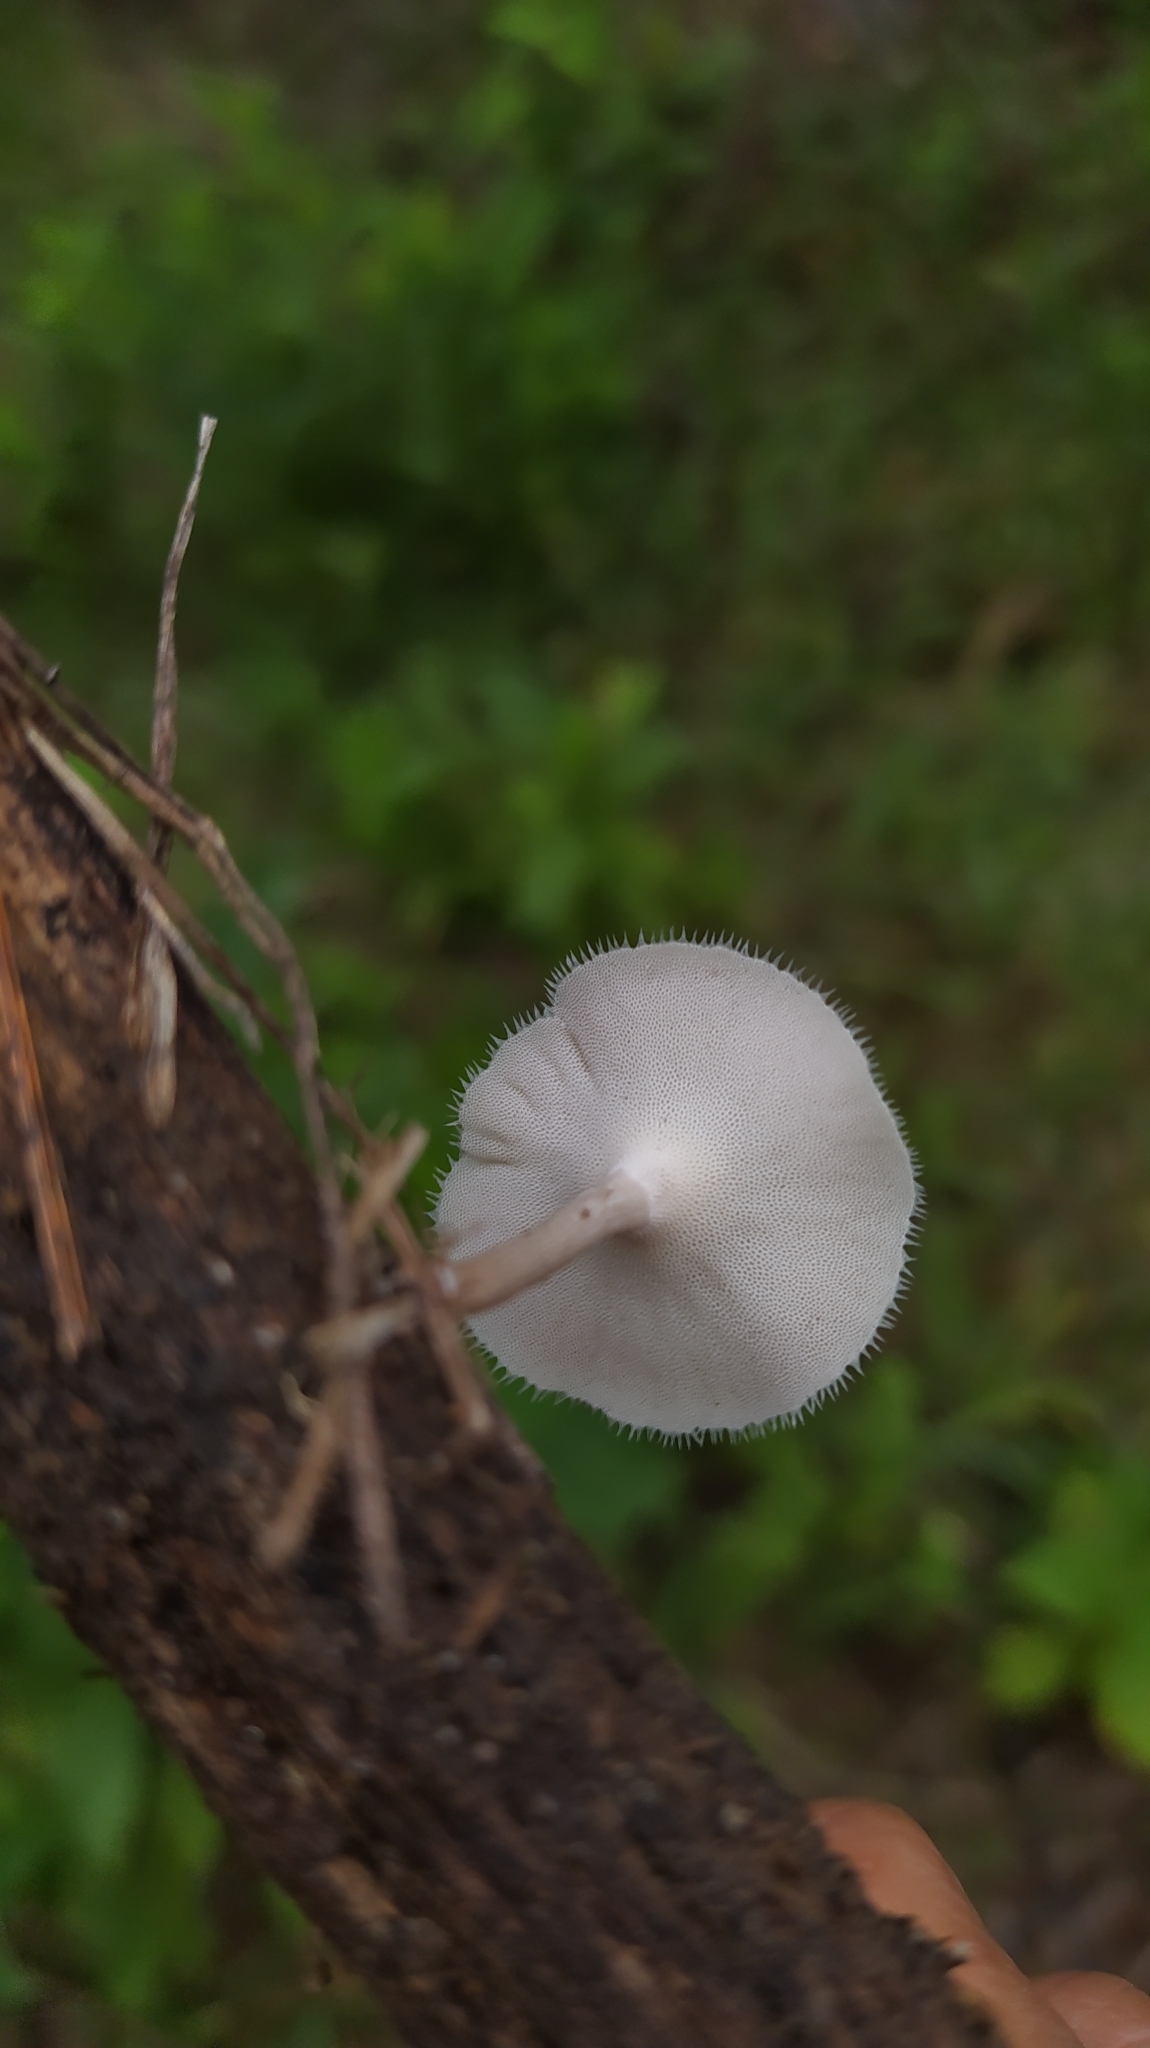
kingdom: Fungi
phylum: Basidiomycota
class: Agaricomycetes
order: Polyporales
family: Polyporaceae
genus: Lentinus
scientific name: Lentinus flexipes
